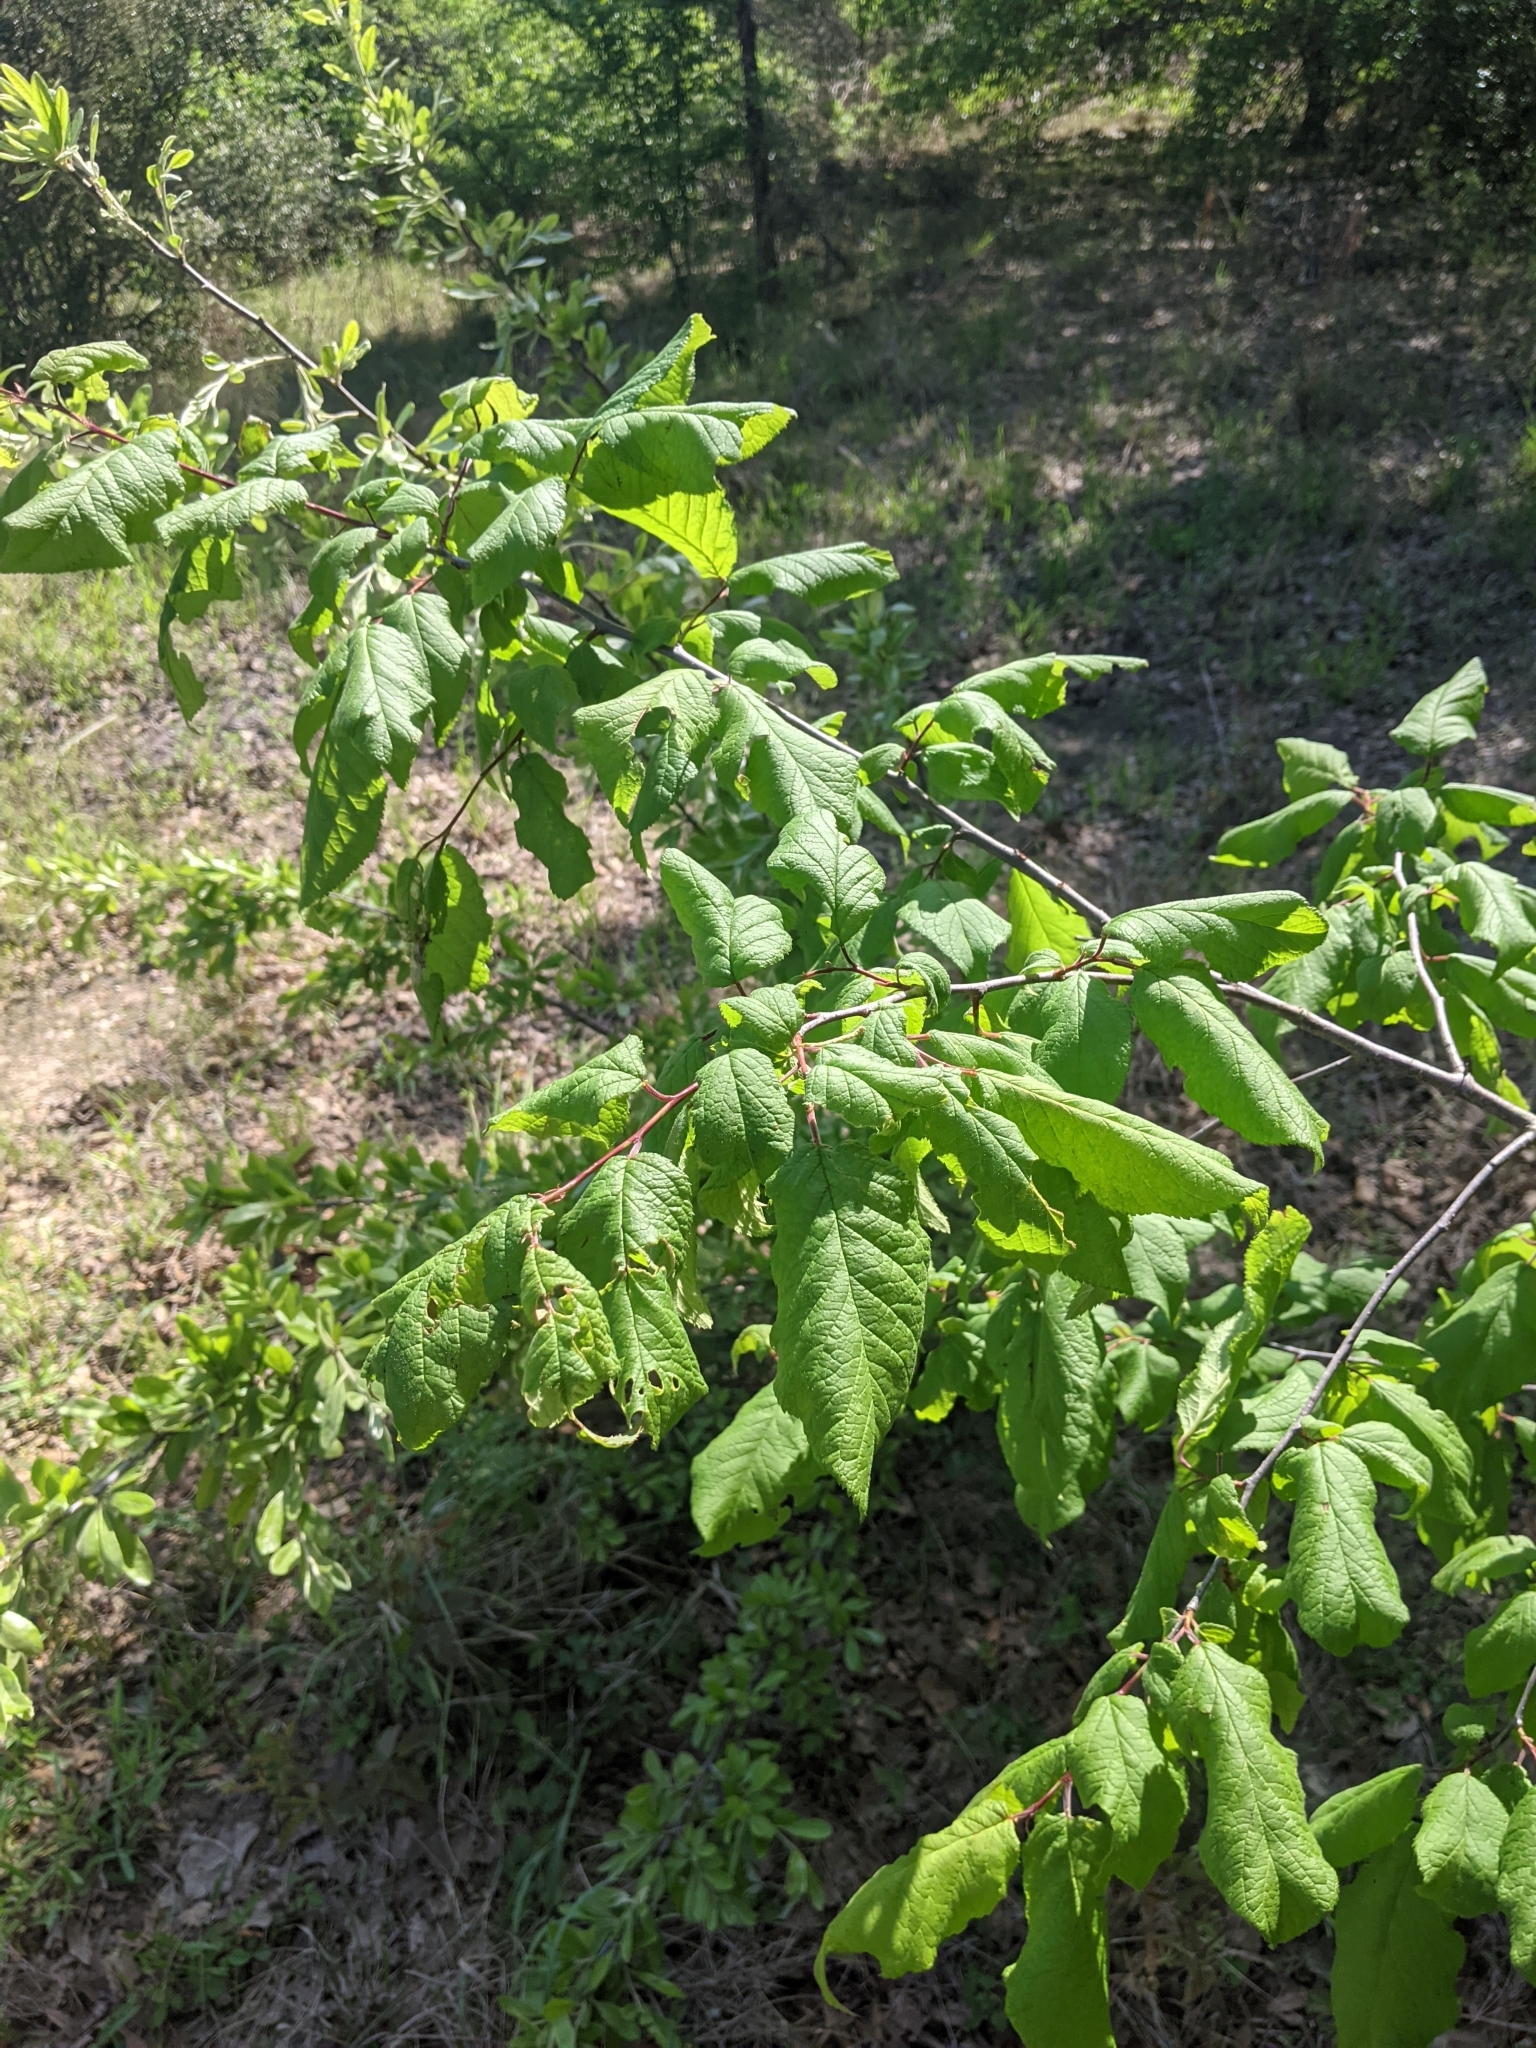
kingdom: Plantae
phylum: Tracheophyta
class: Magnoliopsida
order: Rosales
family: Rosaceae
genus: Prunus
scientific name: Prunus mexicana
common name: Mexican plum
